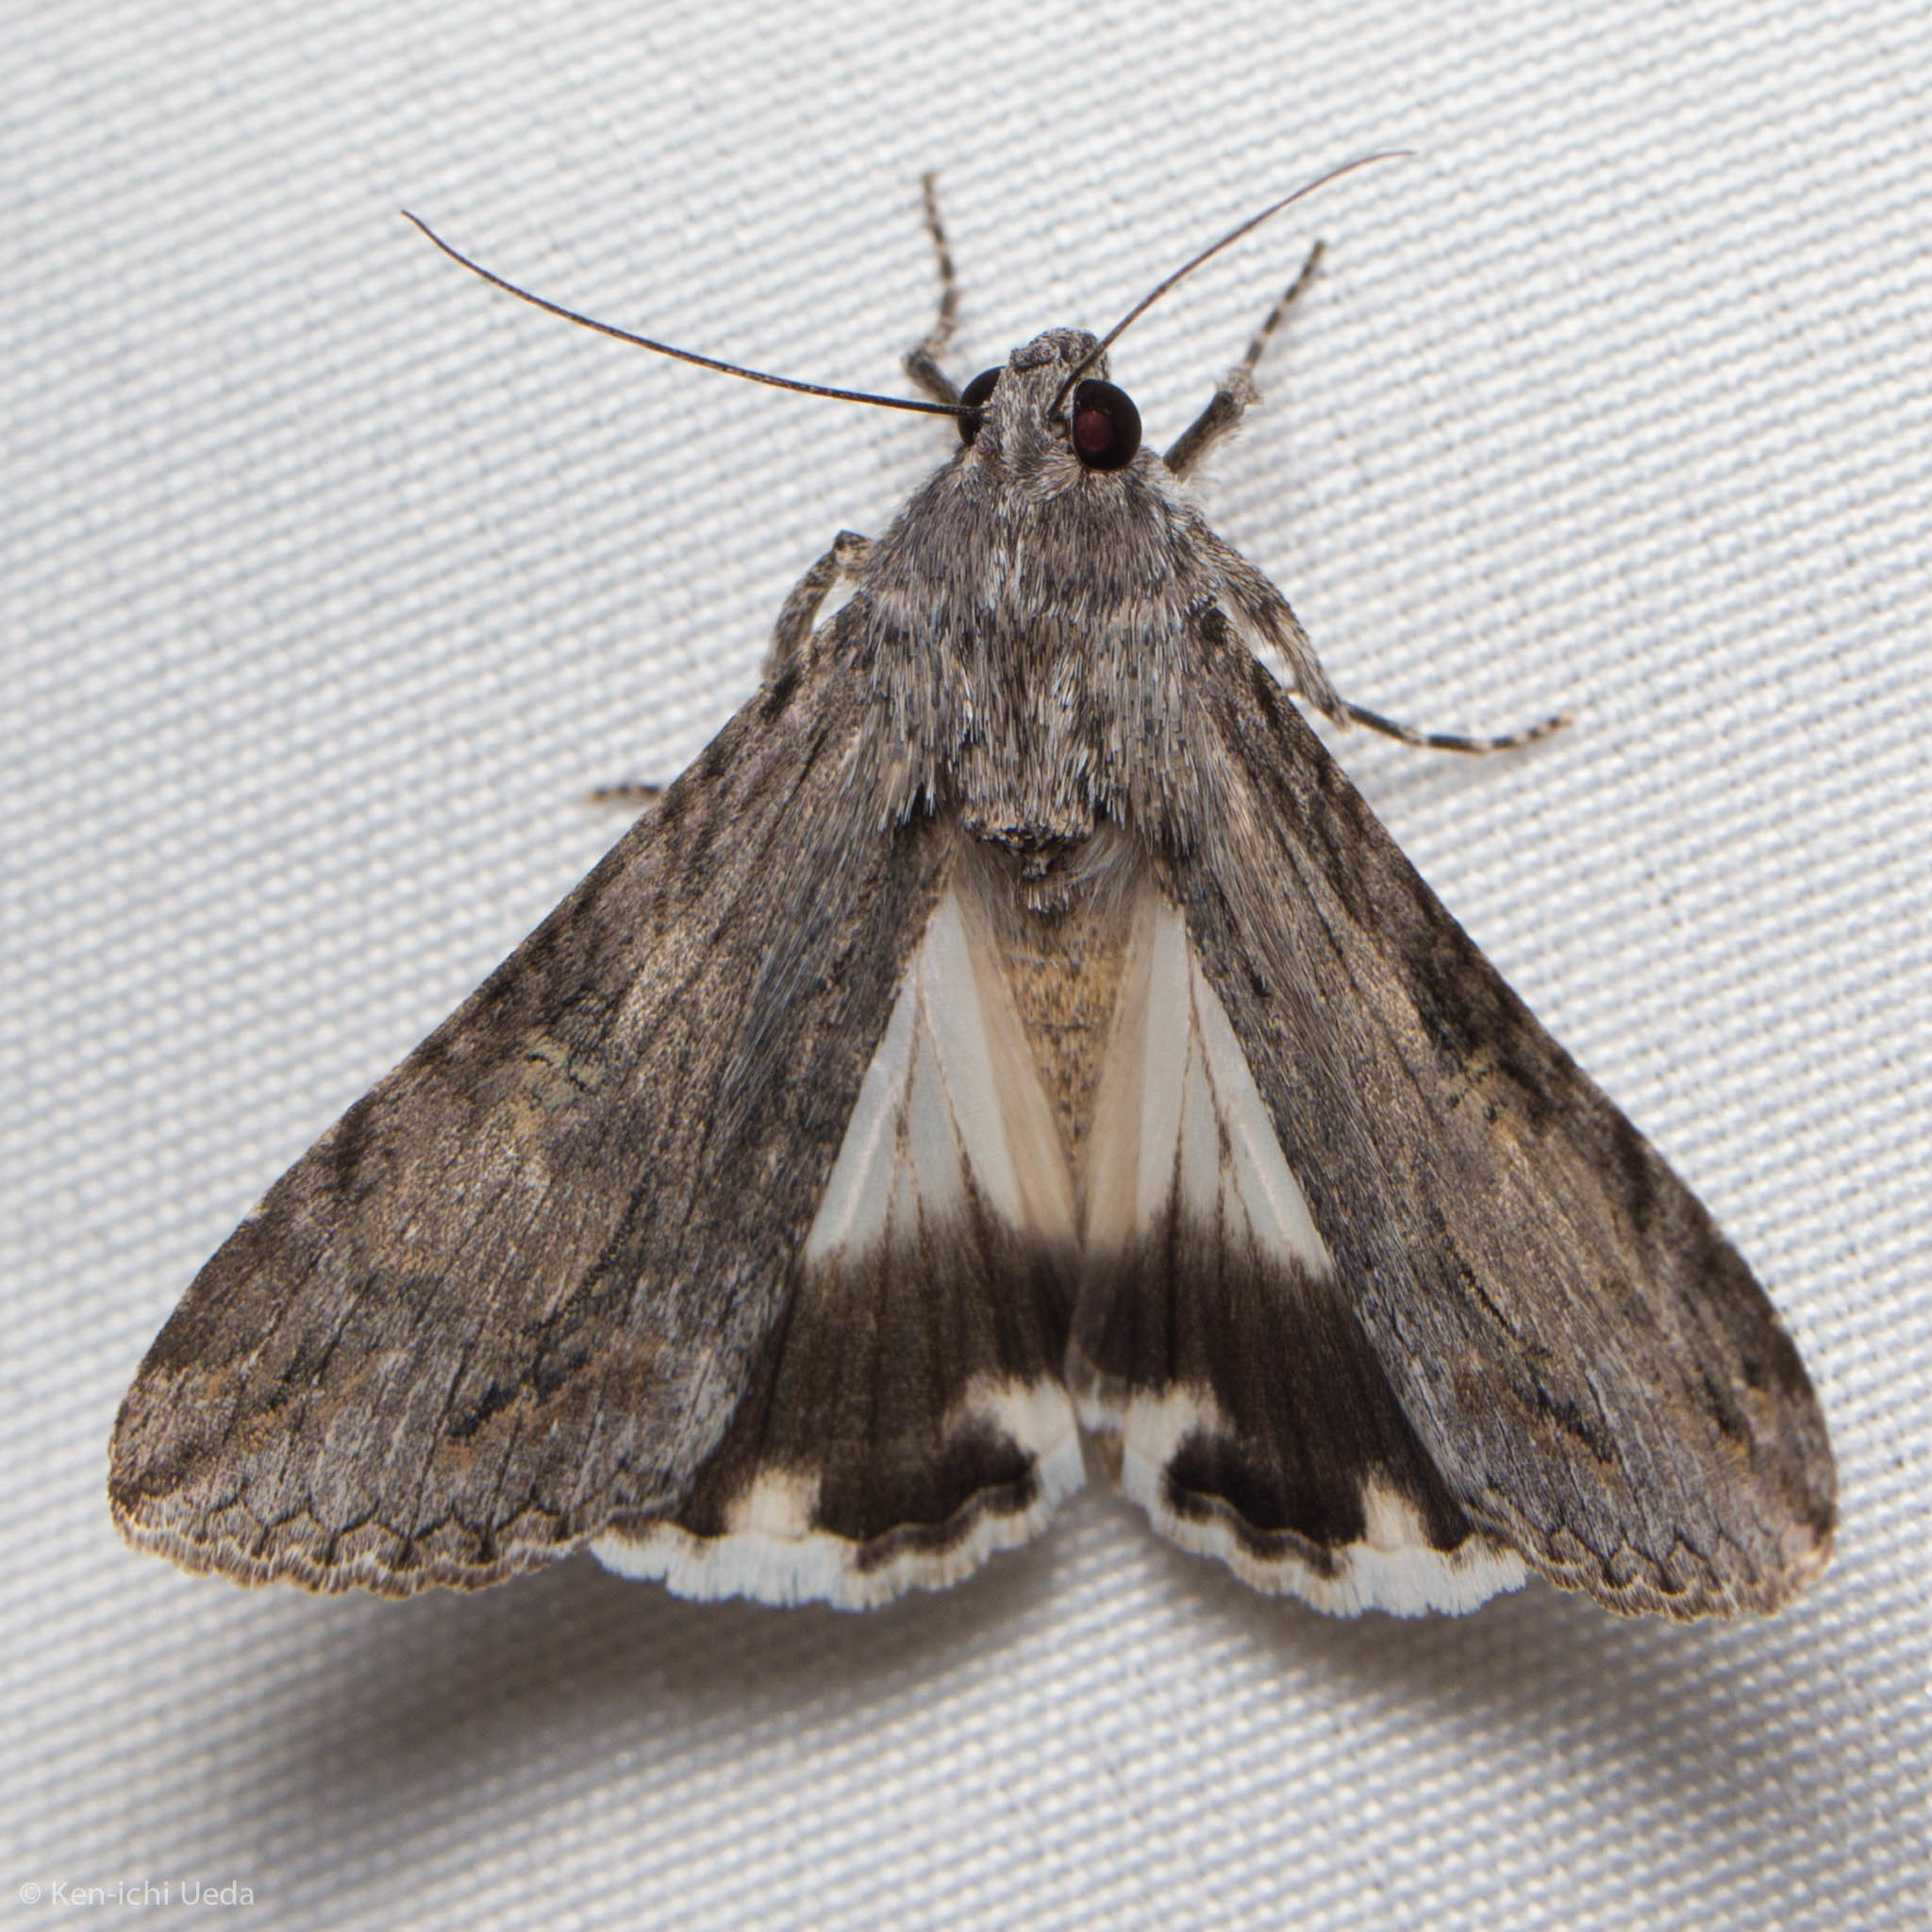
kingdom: Animalia
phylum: Arthropoda
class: Insecta
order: Lepidoptera
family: Erebidae
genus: Melipotis
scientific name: Melipotis jucunda
